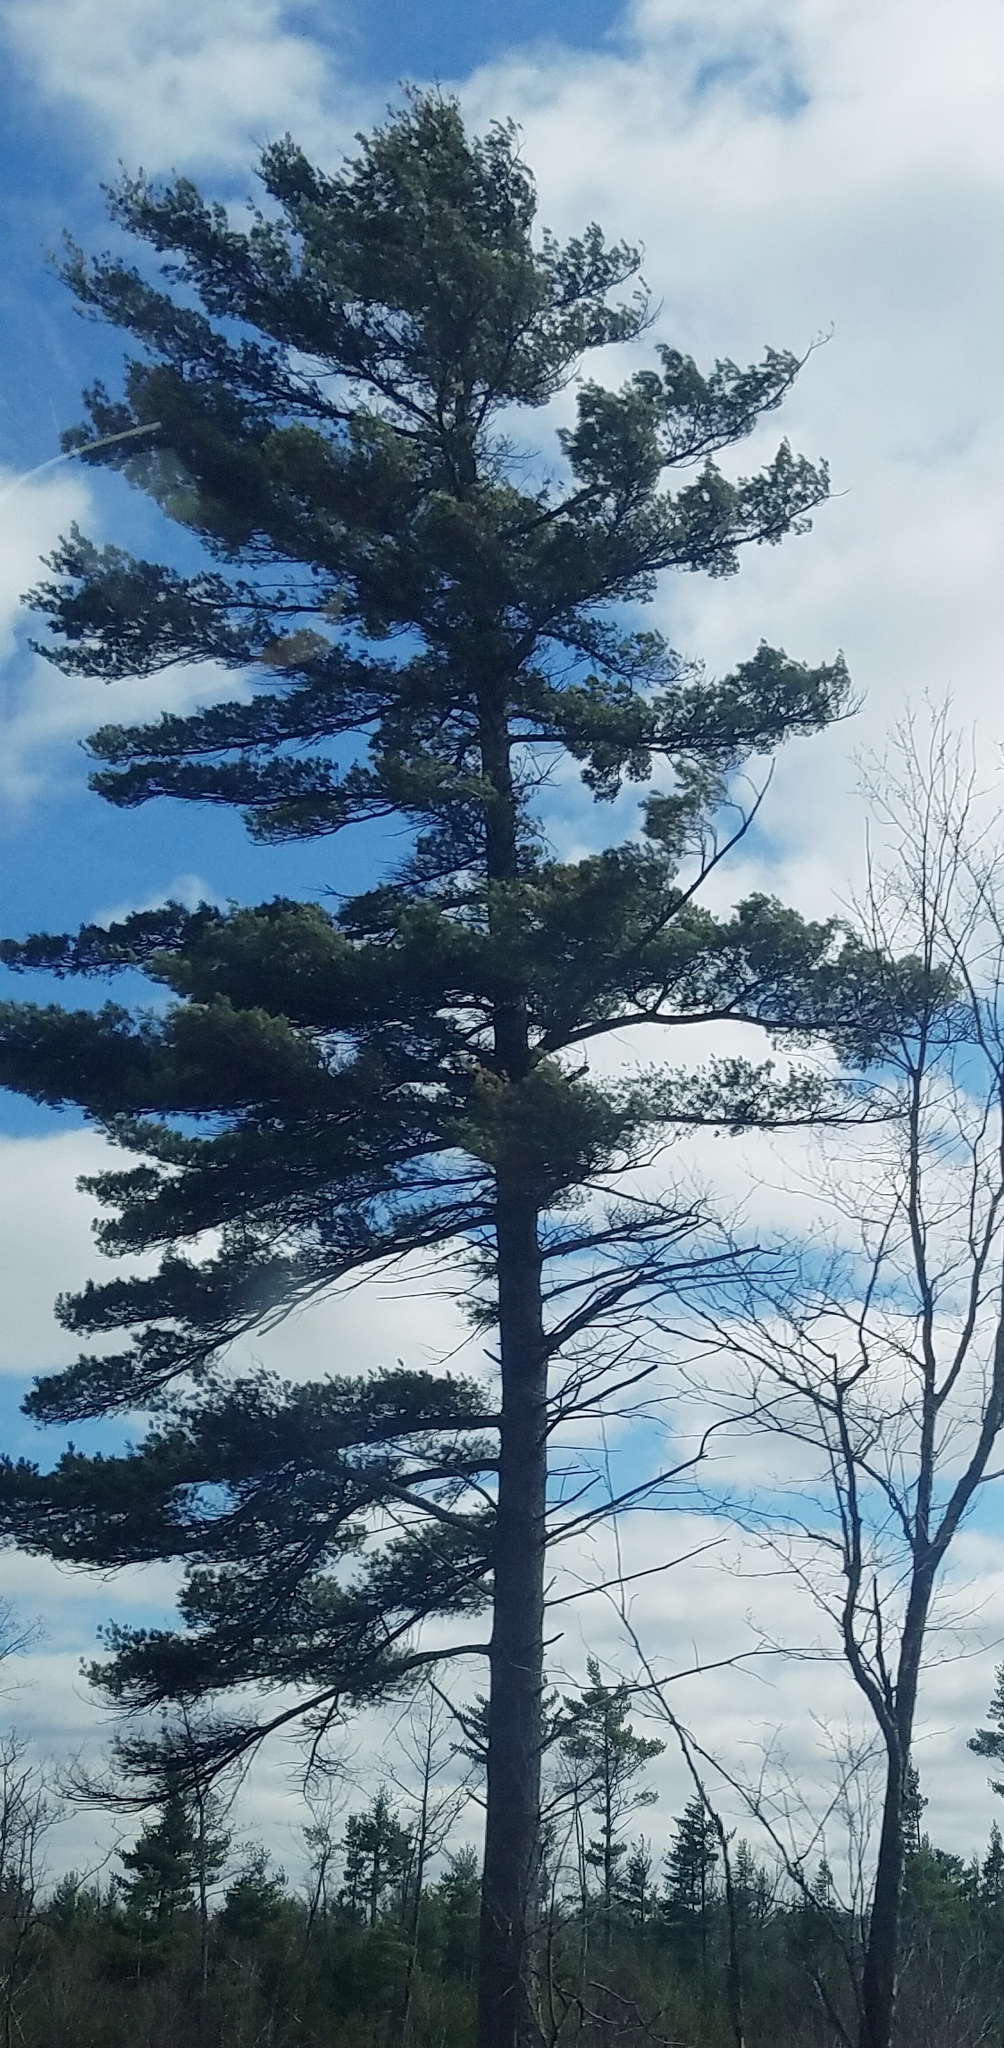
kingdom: Plantae
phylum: Tracheophyta
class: Pinopsida
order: Pinales
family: Pinaceae
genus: Pinus
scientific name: Pinus strobus
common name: Weymouth pine
